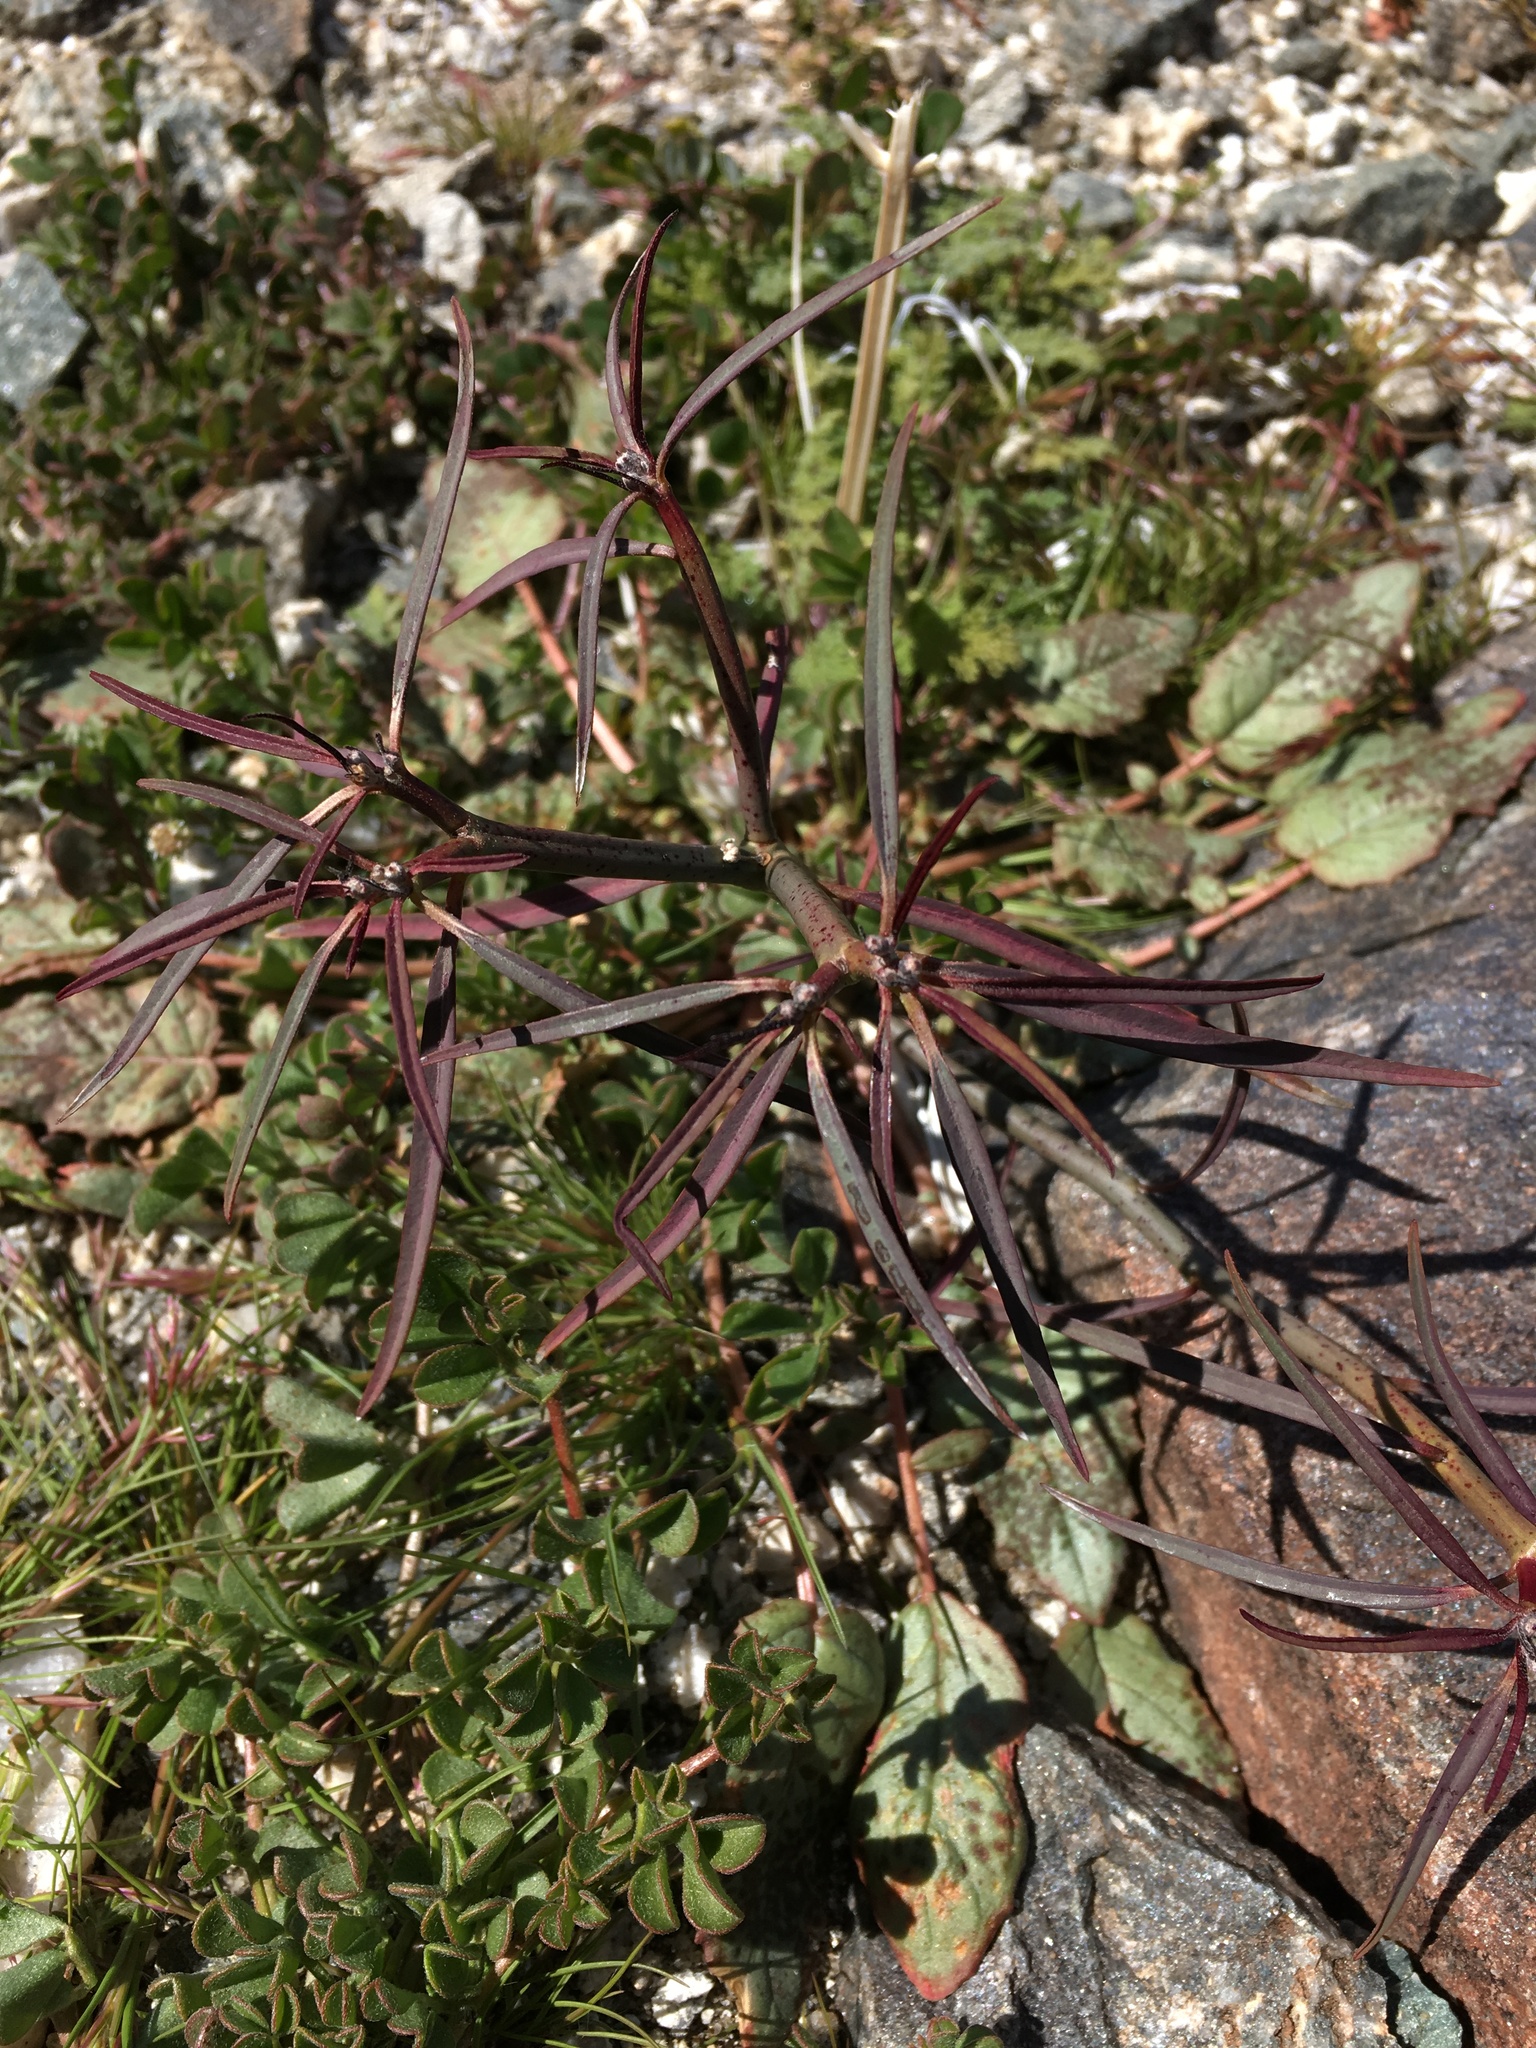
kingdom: Plantae
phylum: Tracheophyta
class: Magnoliopsida
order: Malpighiales
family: Euphorbiaceae
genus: Euphorbia
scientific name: Euphorbia eriantha
